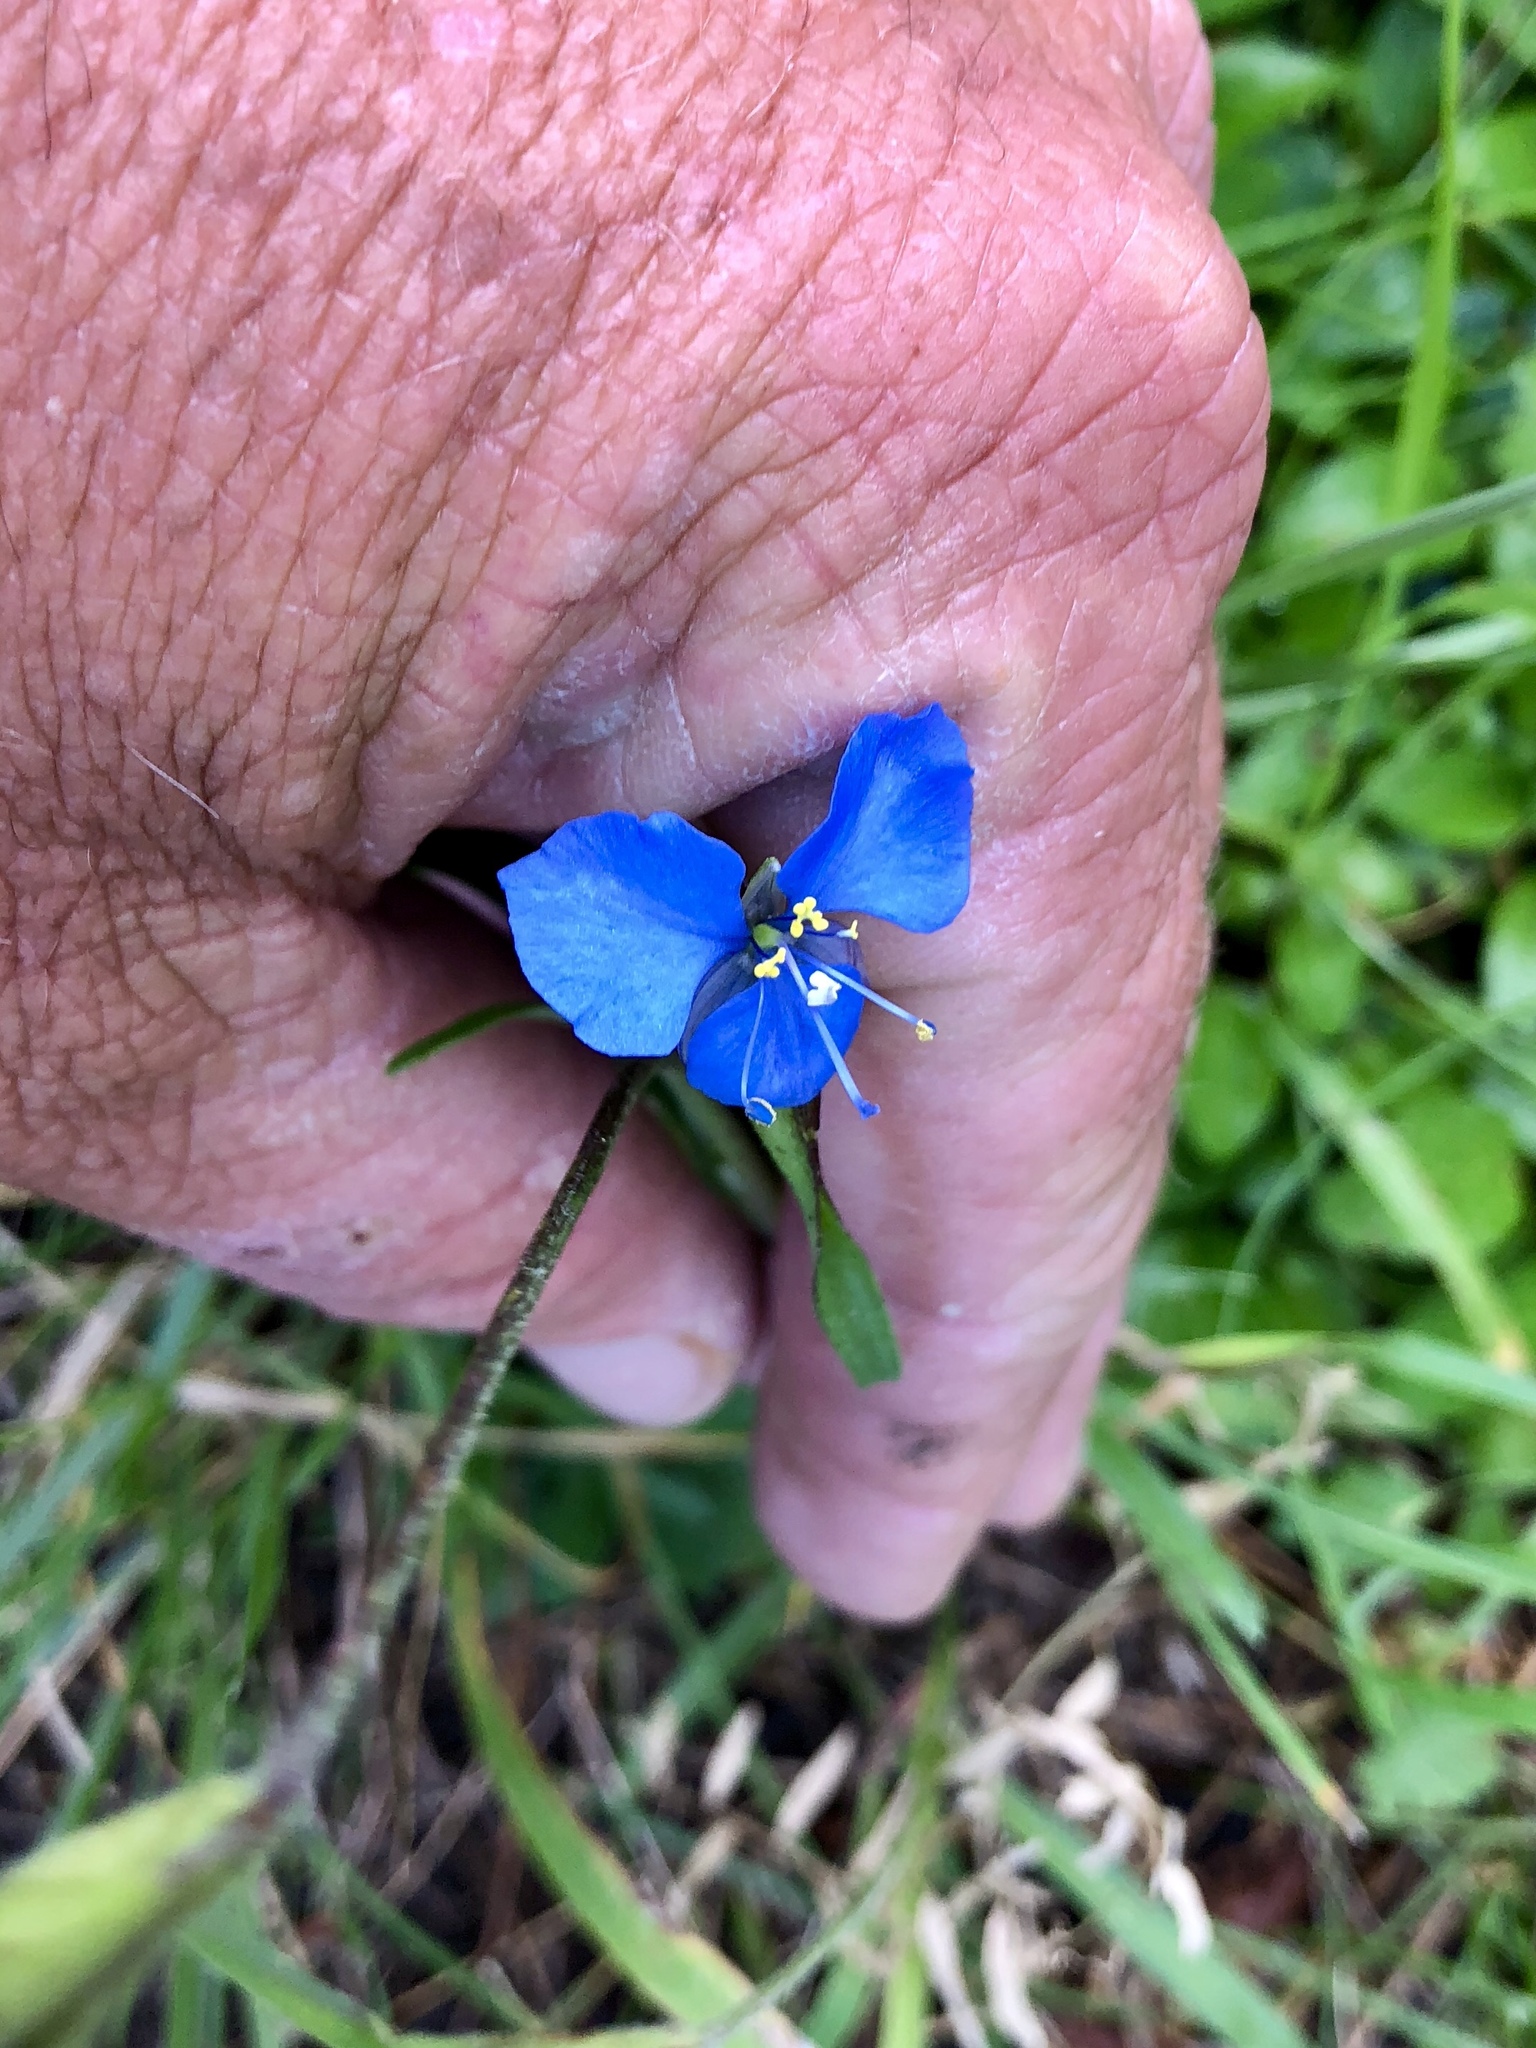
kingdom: Plantae
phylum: Tracheophyta
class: Liliopsida
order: Commelinales
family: Commelinaceae
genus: Commelina
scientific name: Commelina dianthifolia
